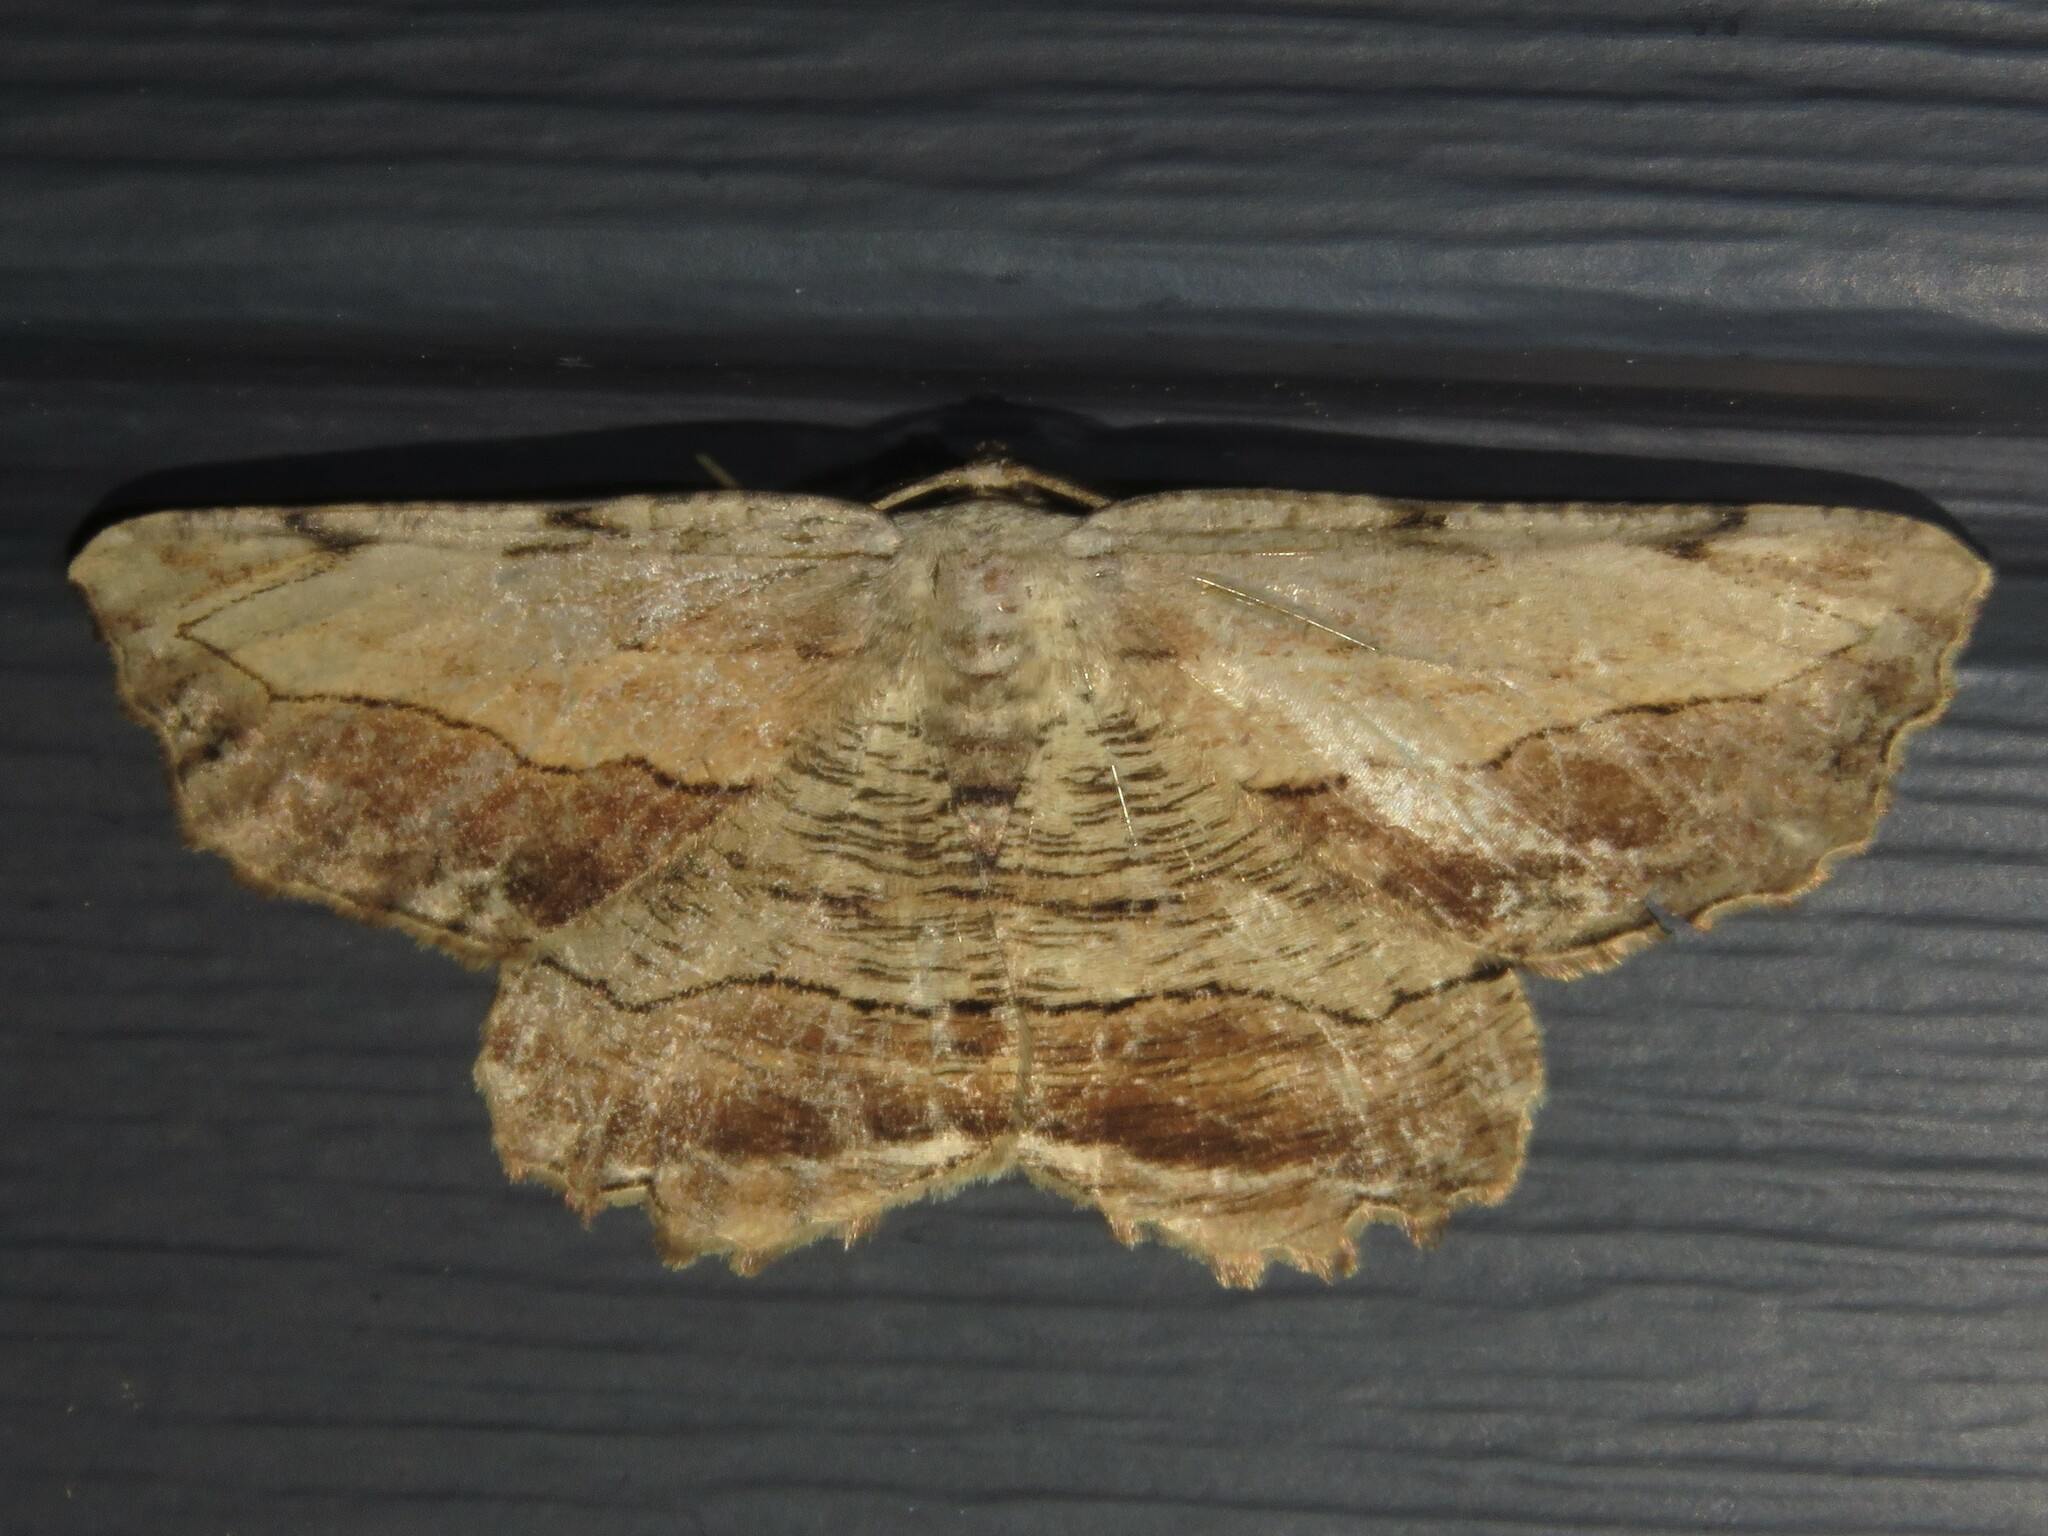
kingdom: Animalia
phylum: Arthropoda
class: Insecta
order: Lepidoptera
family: Geometridae
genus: Lytrosis
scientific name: Lytrosis unitaria
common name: Common lytrosis
